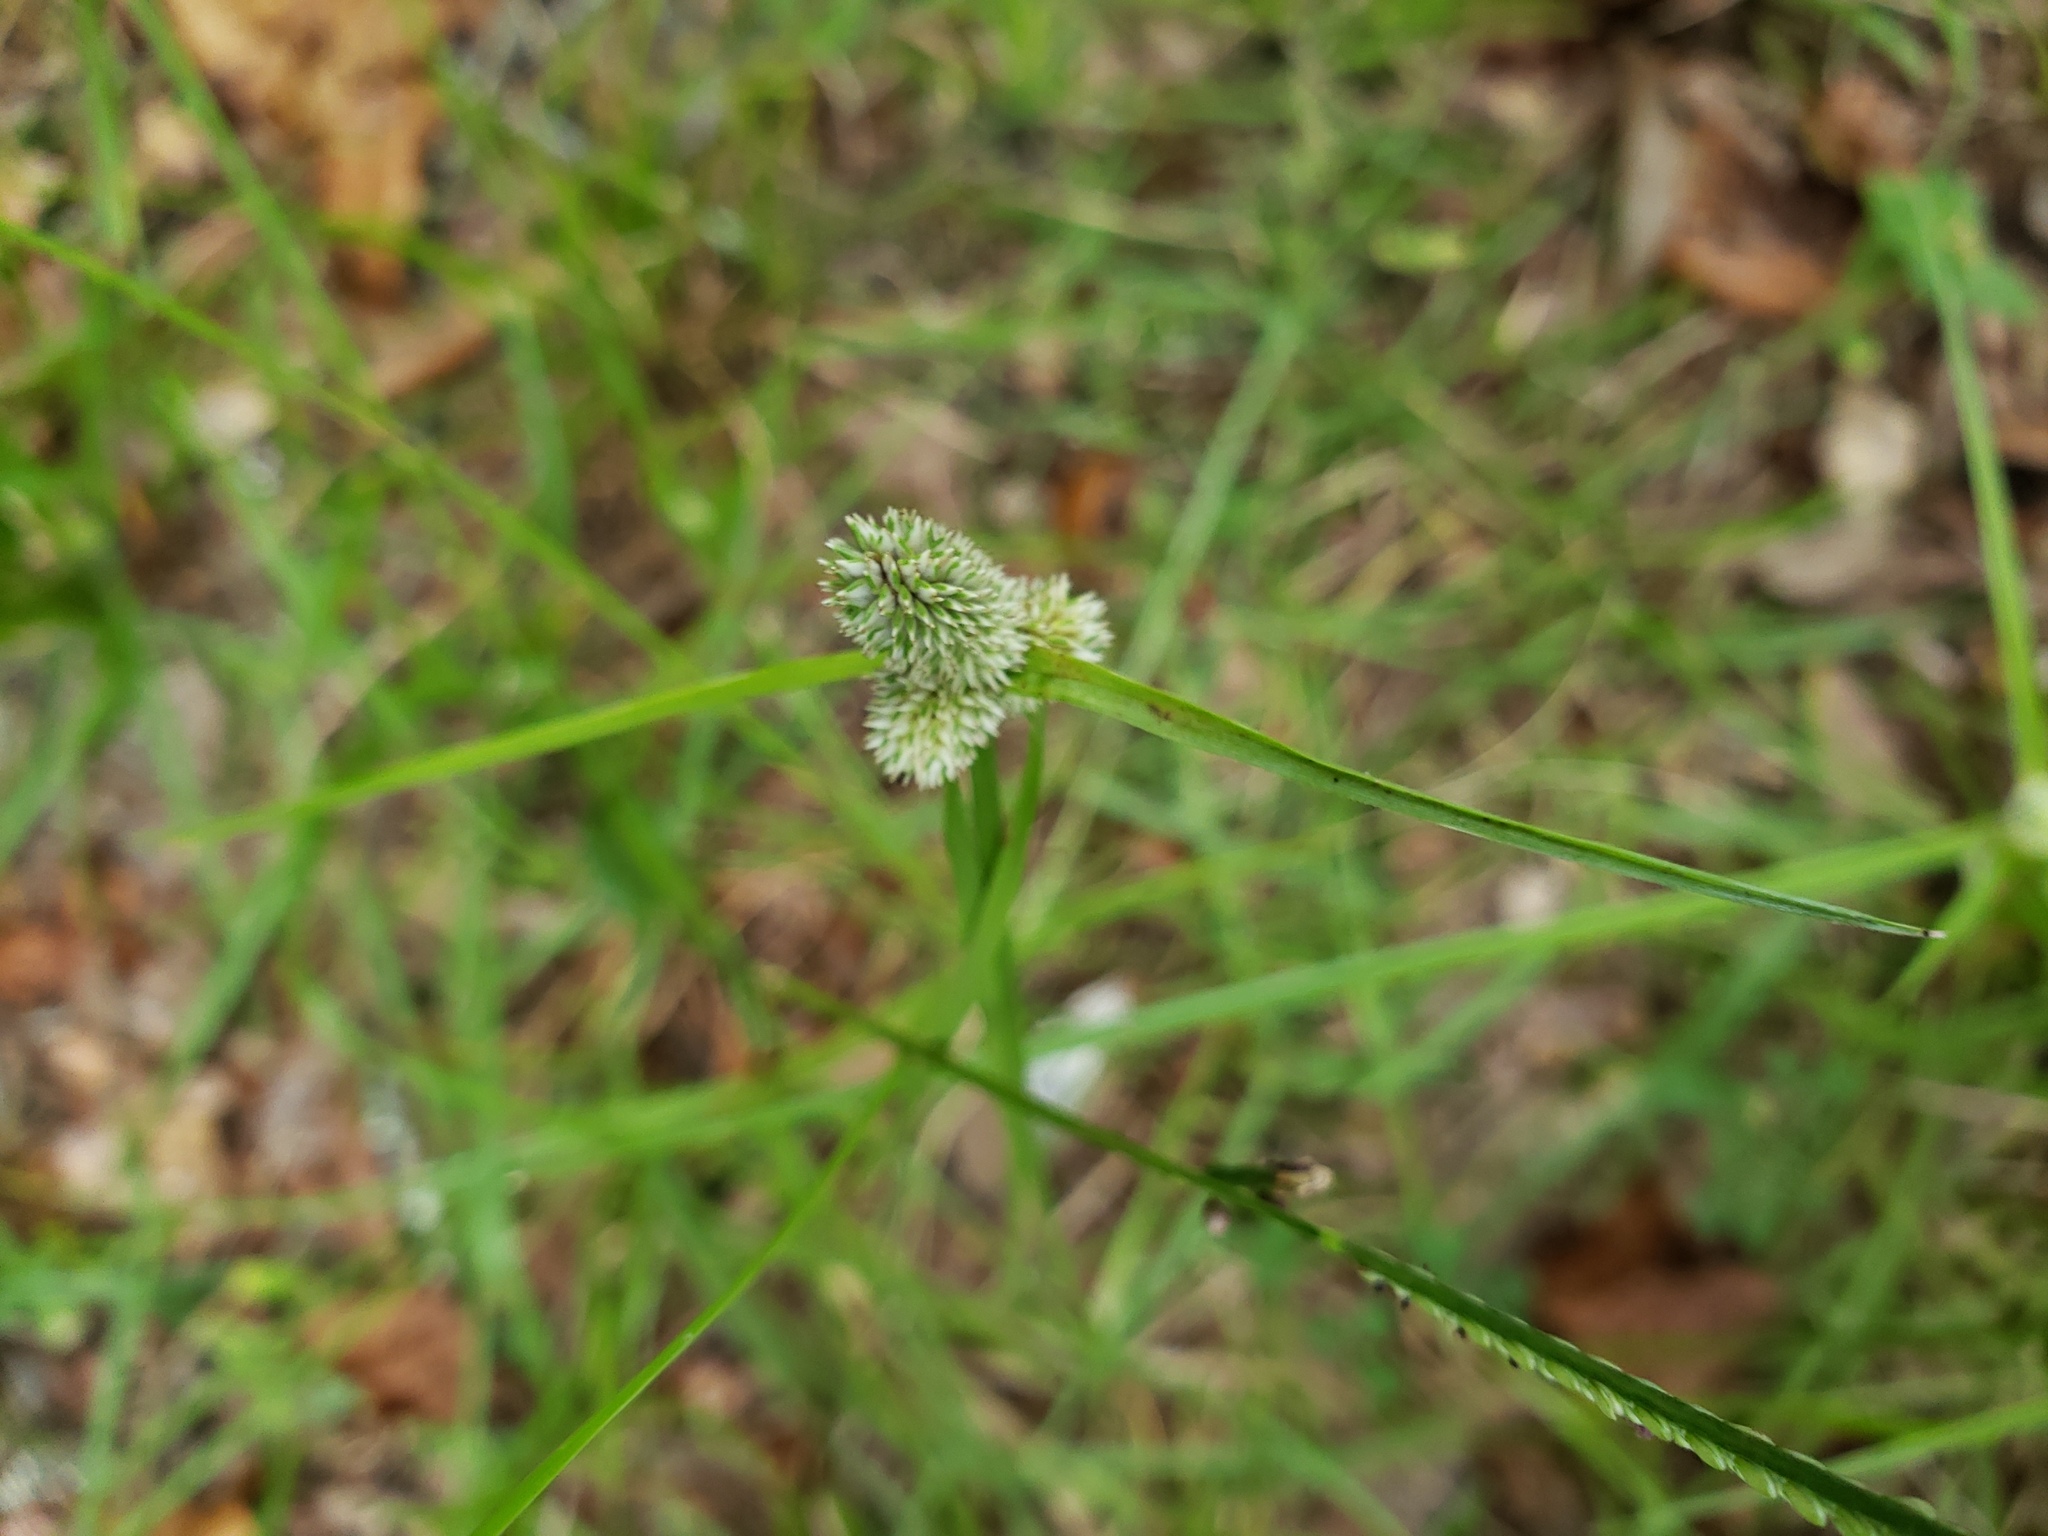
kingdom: Plantae
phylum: Tracheophyta
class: Liliopsida
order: Poales
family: Cyperaceae
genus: Cyperus
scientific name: Cyperus sesquiflorus
